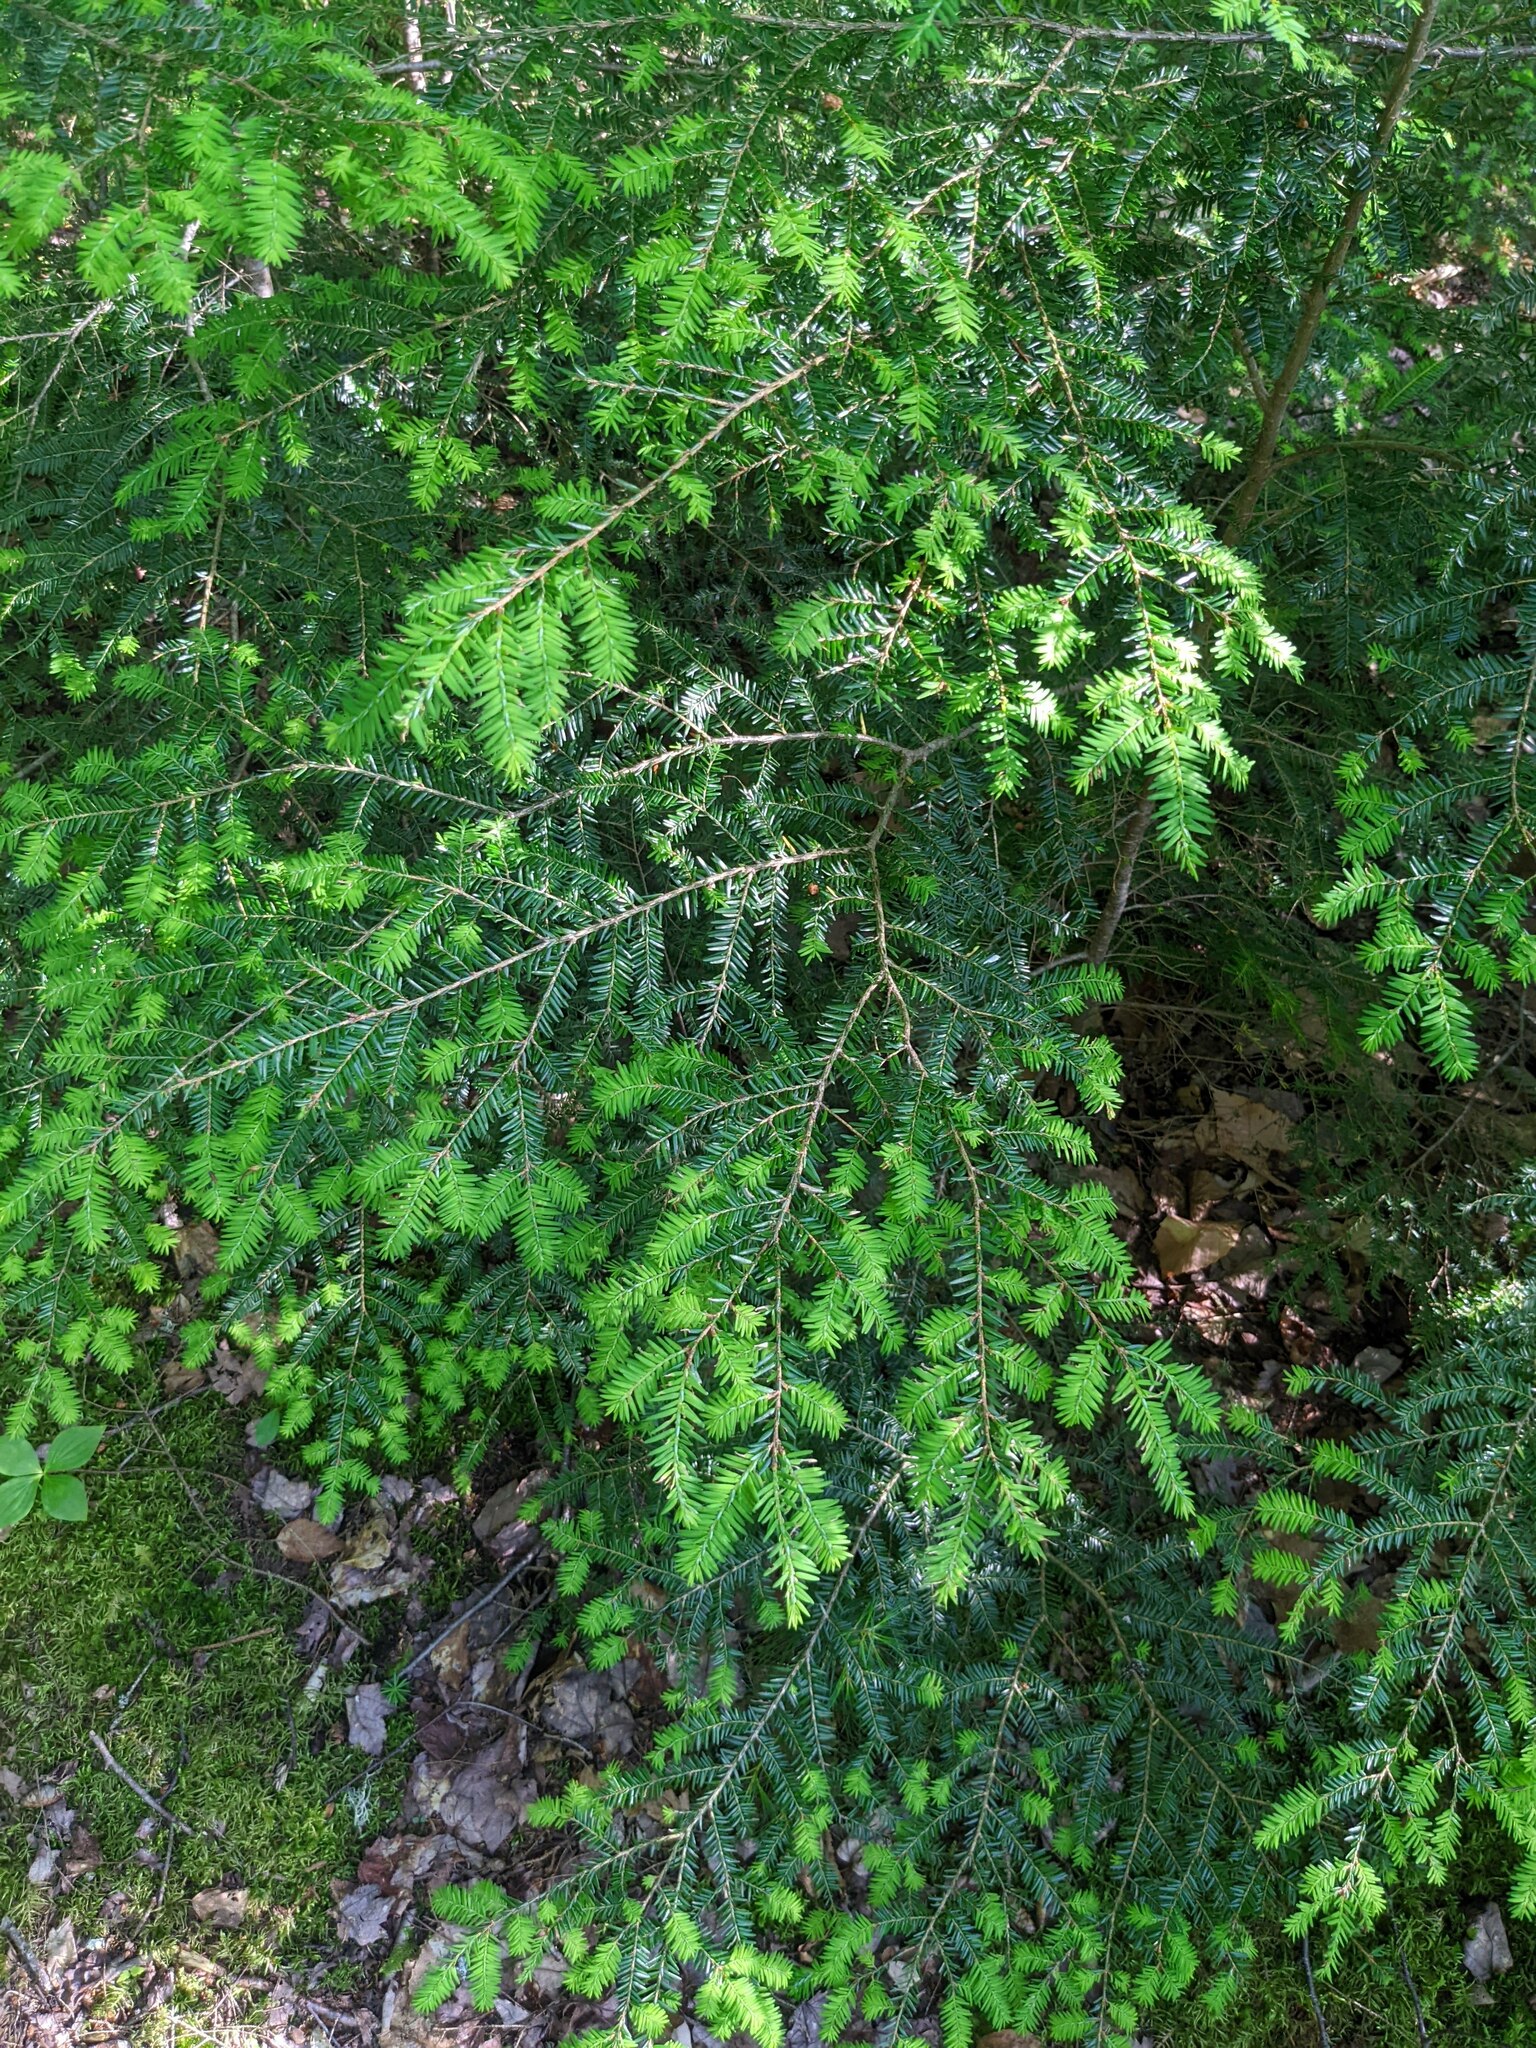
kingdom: Plantae
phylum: Tracheophyta
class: Pinopsida
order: Pinales
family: Pinaceae
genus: Tsuga
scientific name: Tsuga canadensis
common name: Eastern hemlock
